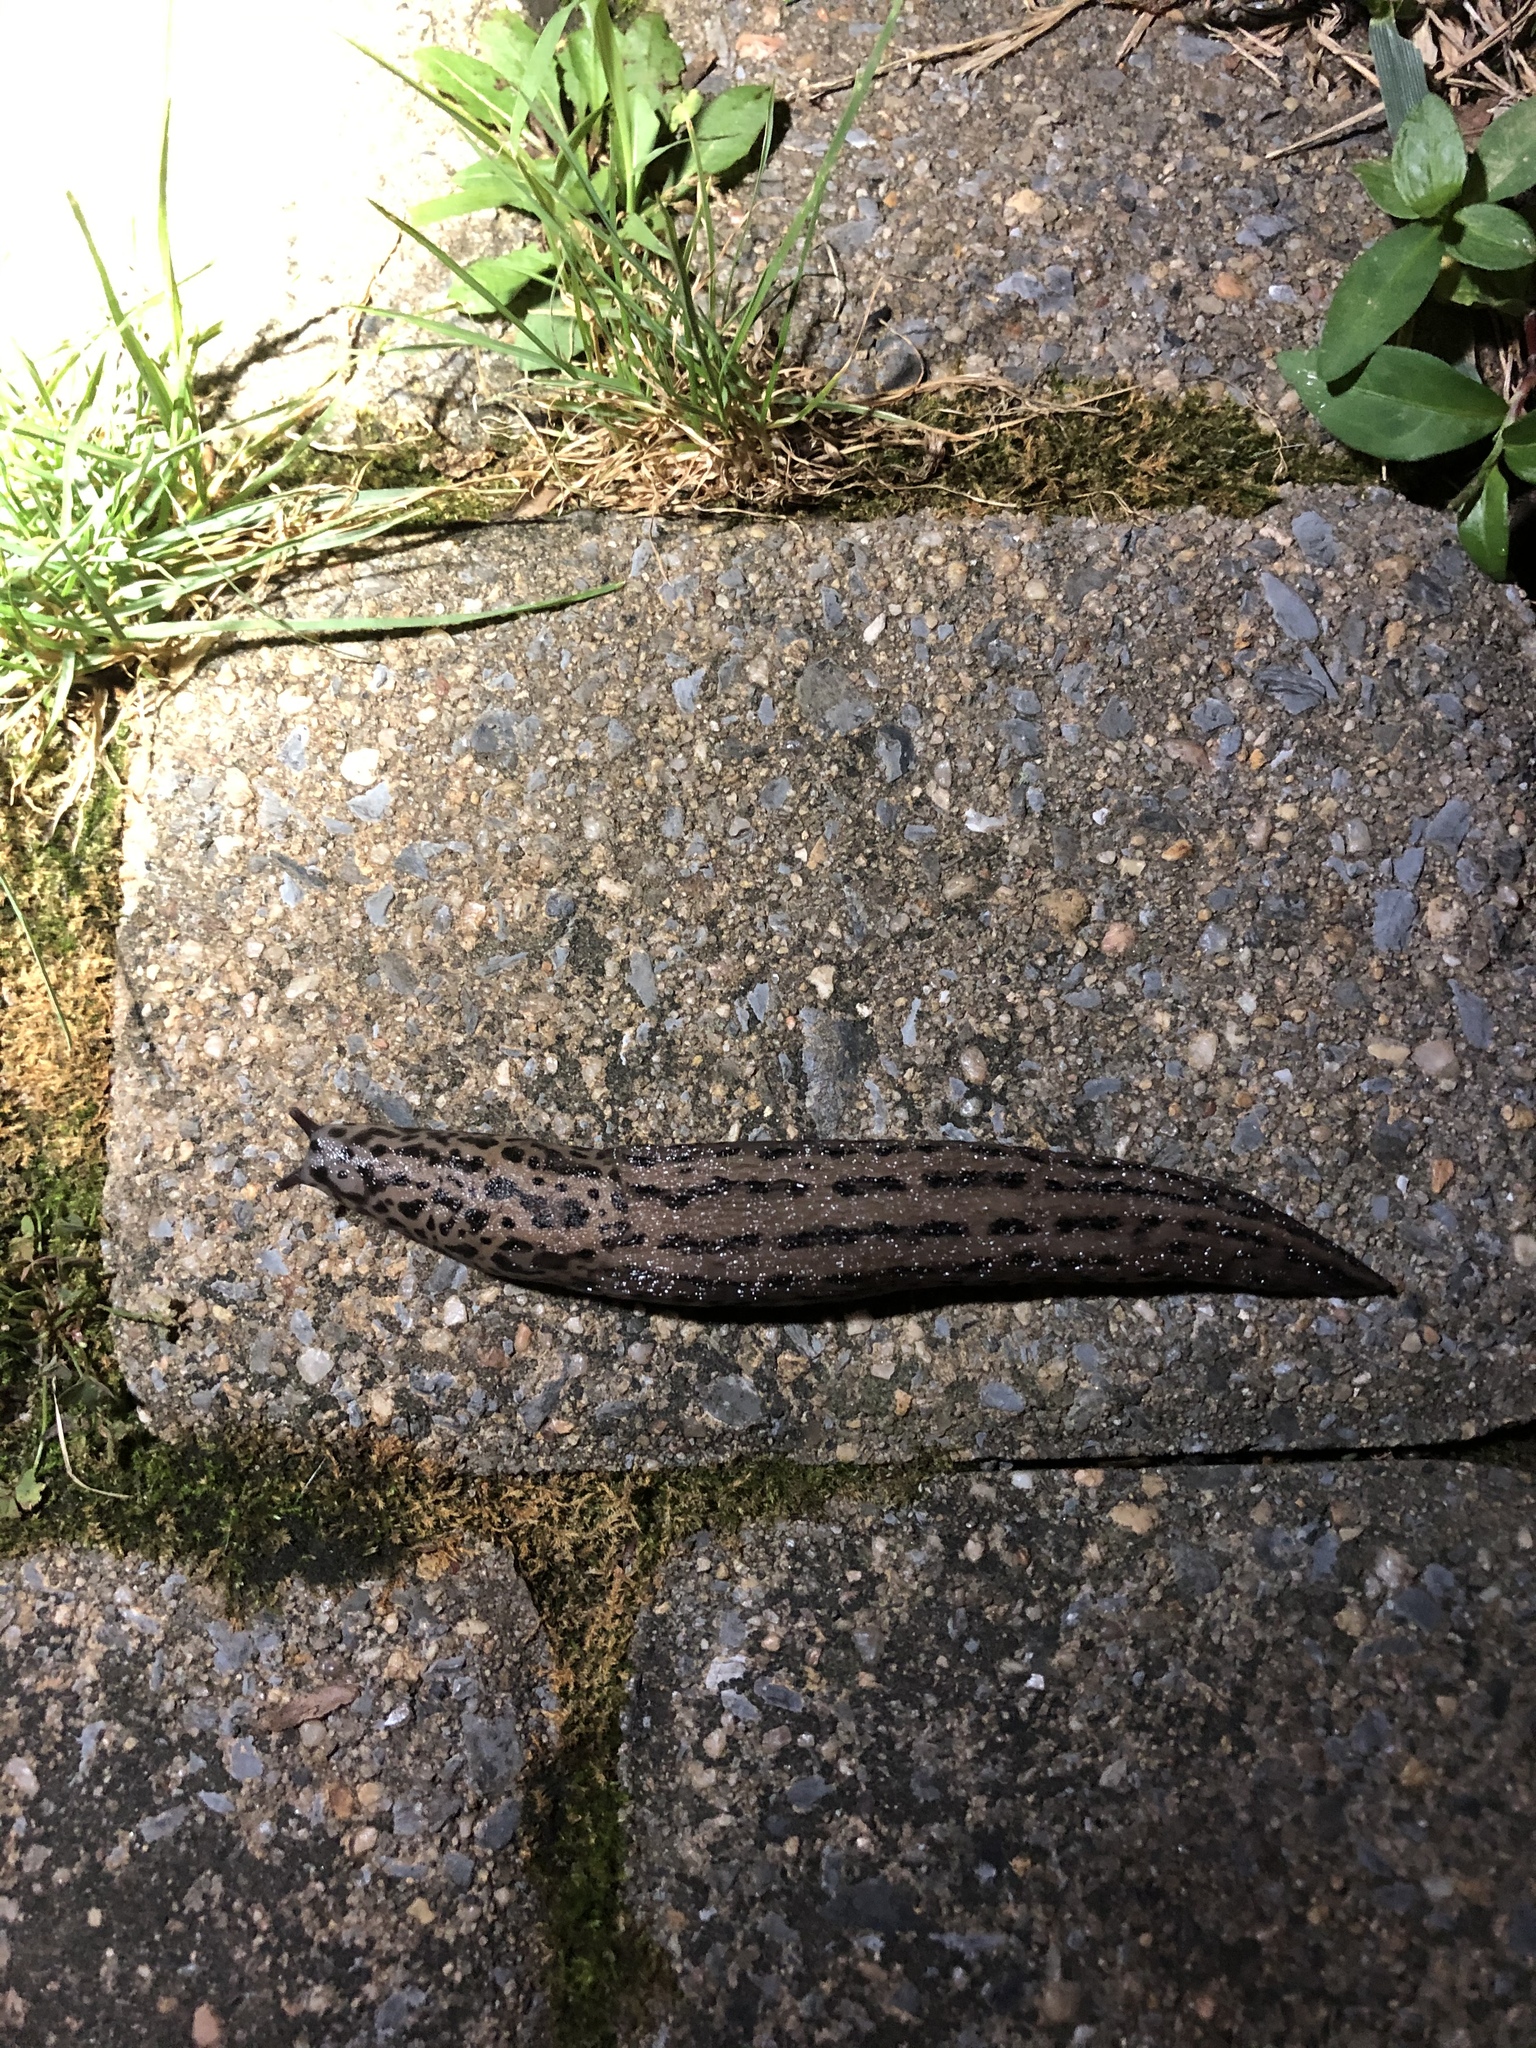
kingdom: Animalia
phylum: Mollusca
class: Gastropoda
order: Stylommatophora
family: Limacidae
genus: Limax
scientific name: Limax maximus
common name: Great grey slug
